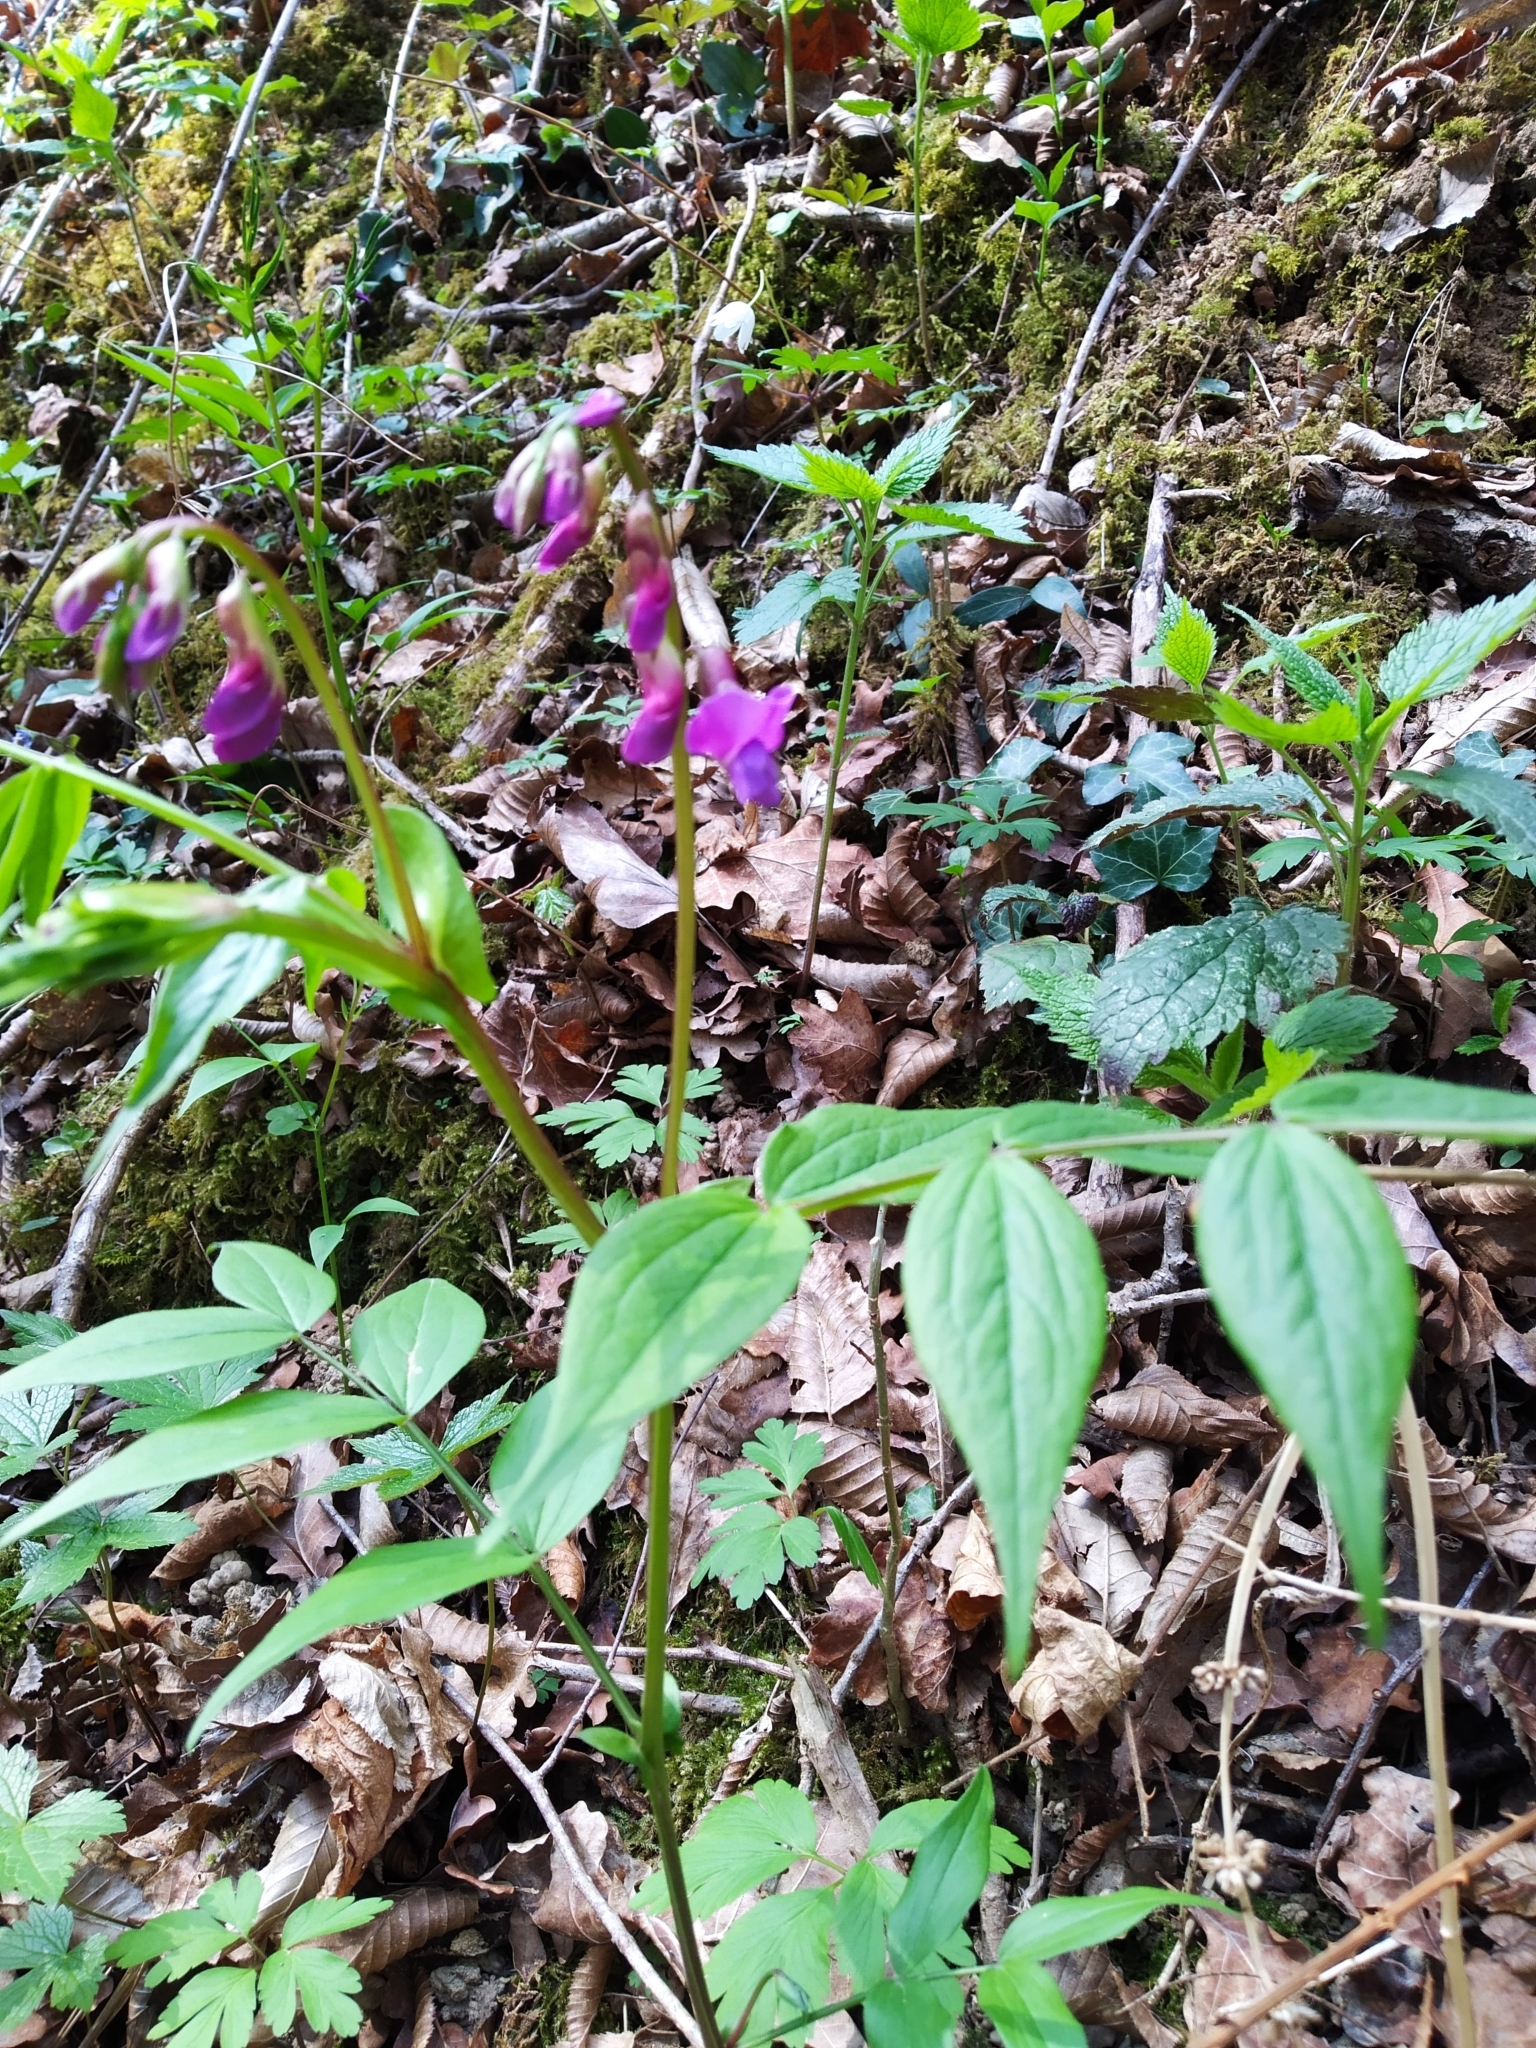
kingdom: Plantae
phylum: Tracheophyta
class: Magnoliopsida
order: Fabales
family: Fabaceae
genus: Lathyrus
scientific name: Lathyrus vernus
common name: Spring pea
